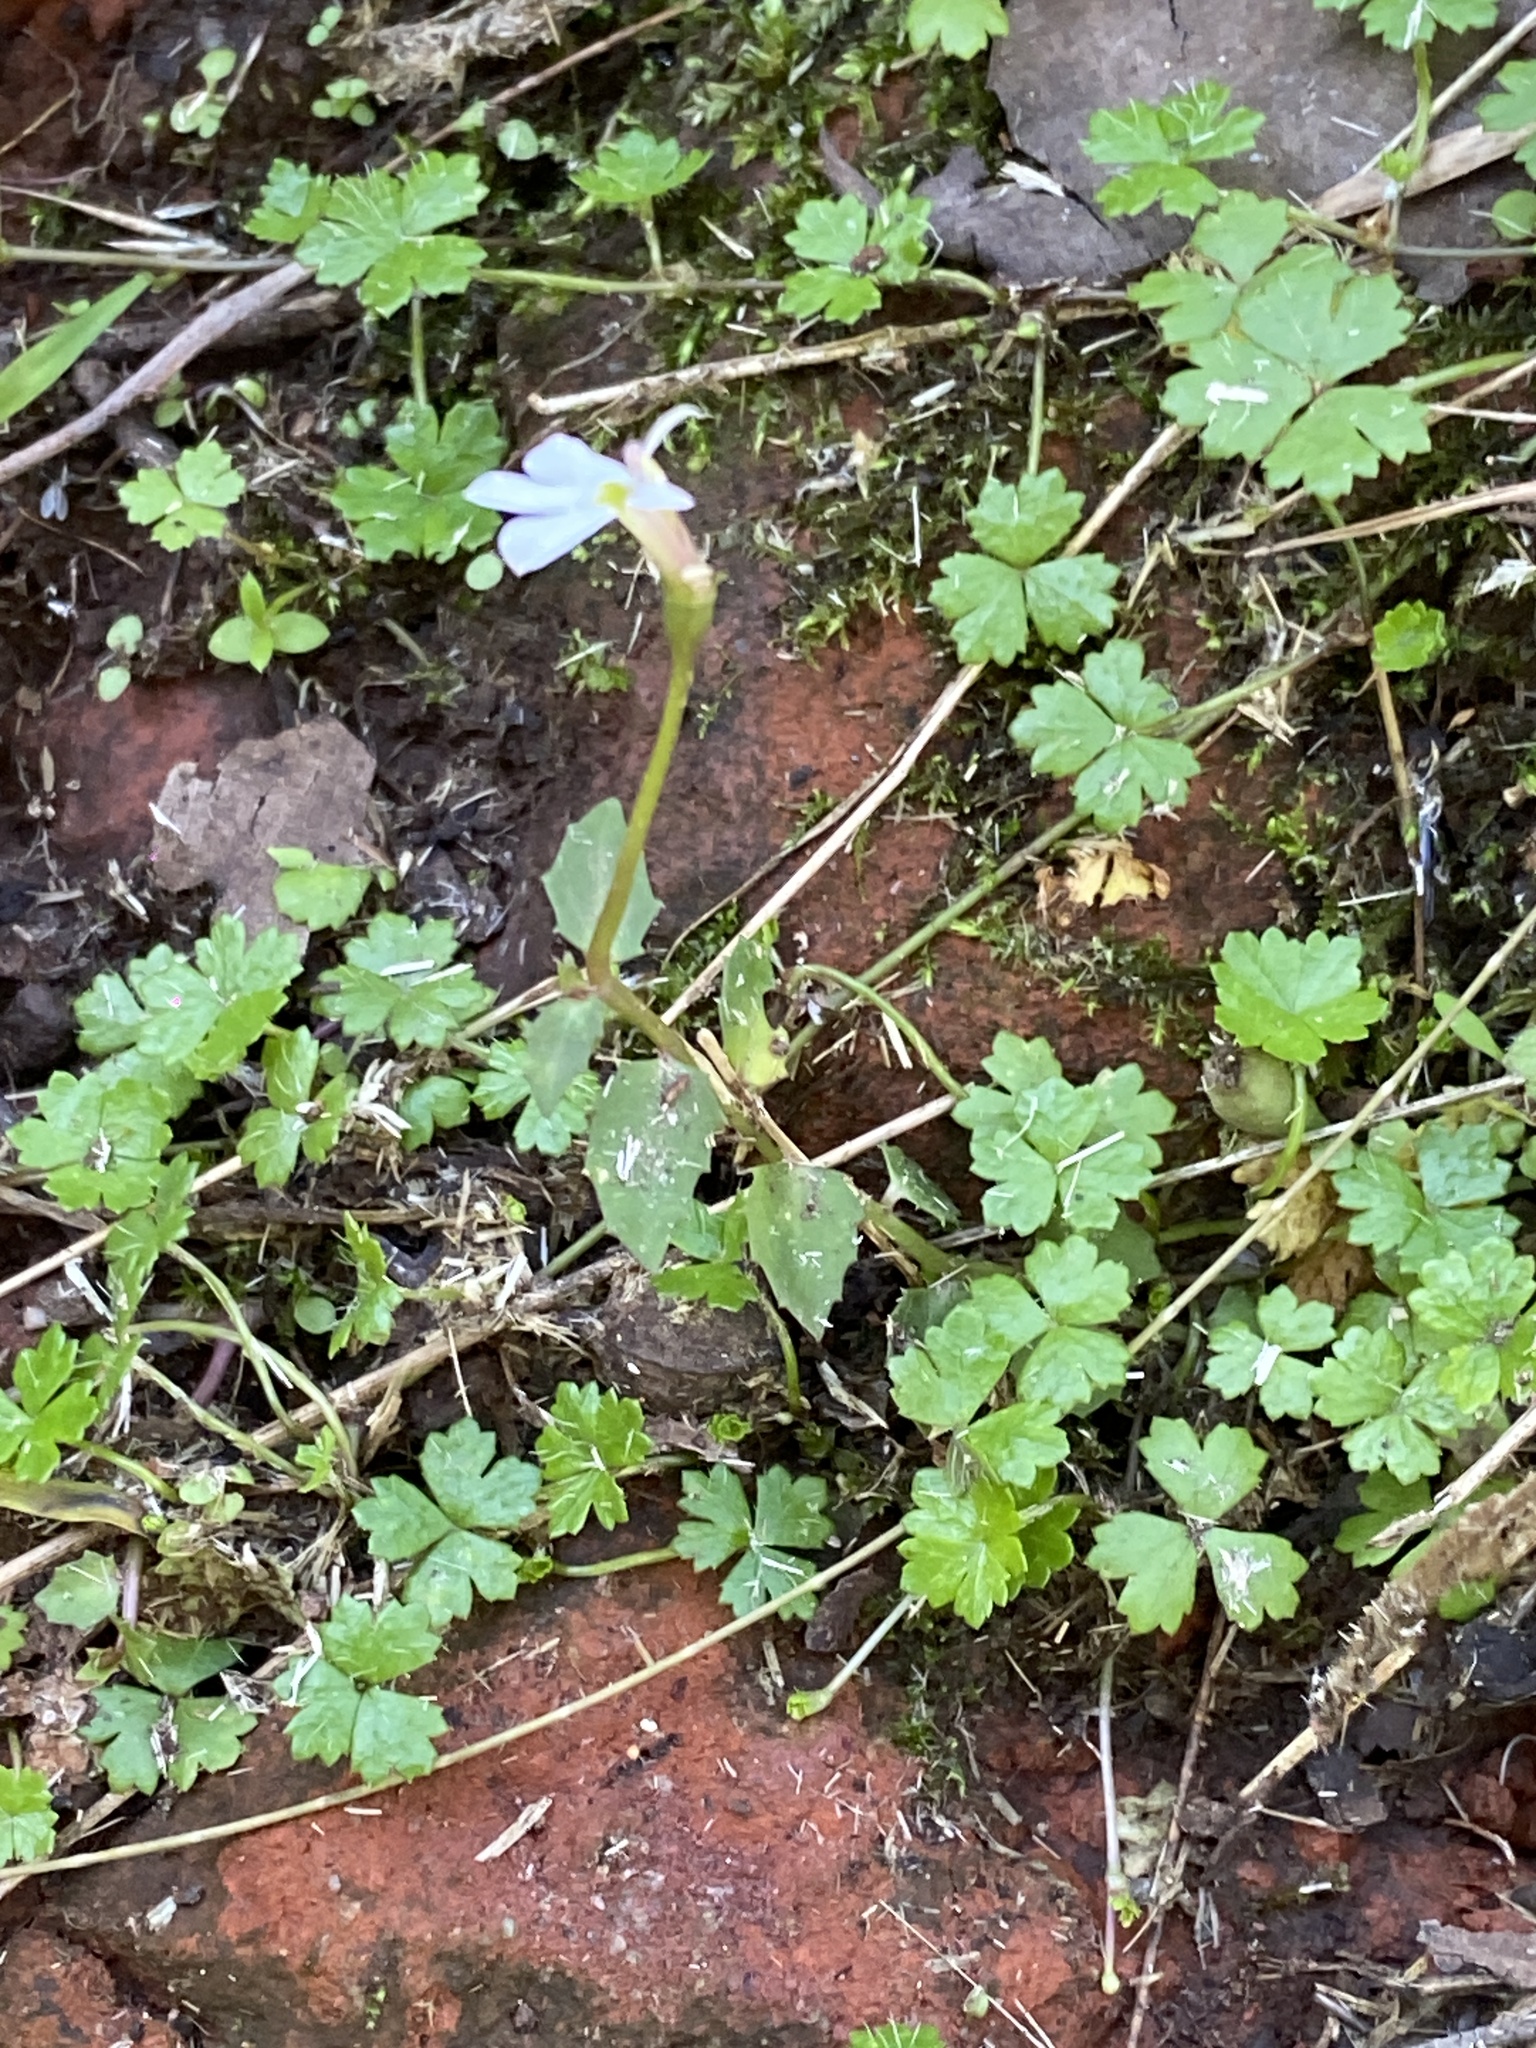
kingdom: Plantae
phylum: Tracheophyta
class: Magnoliopsida
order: Asterales
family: Campanulaceae
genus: Lobelia
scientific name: Lobelia purpurascens
